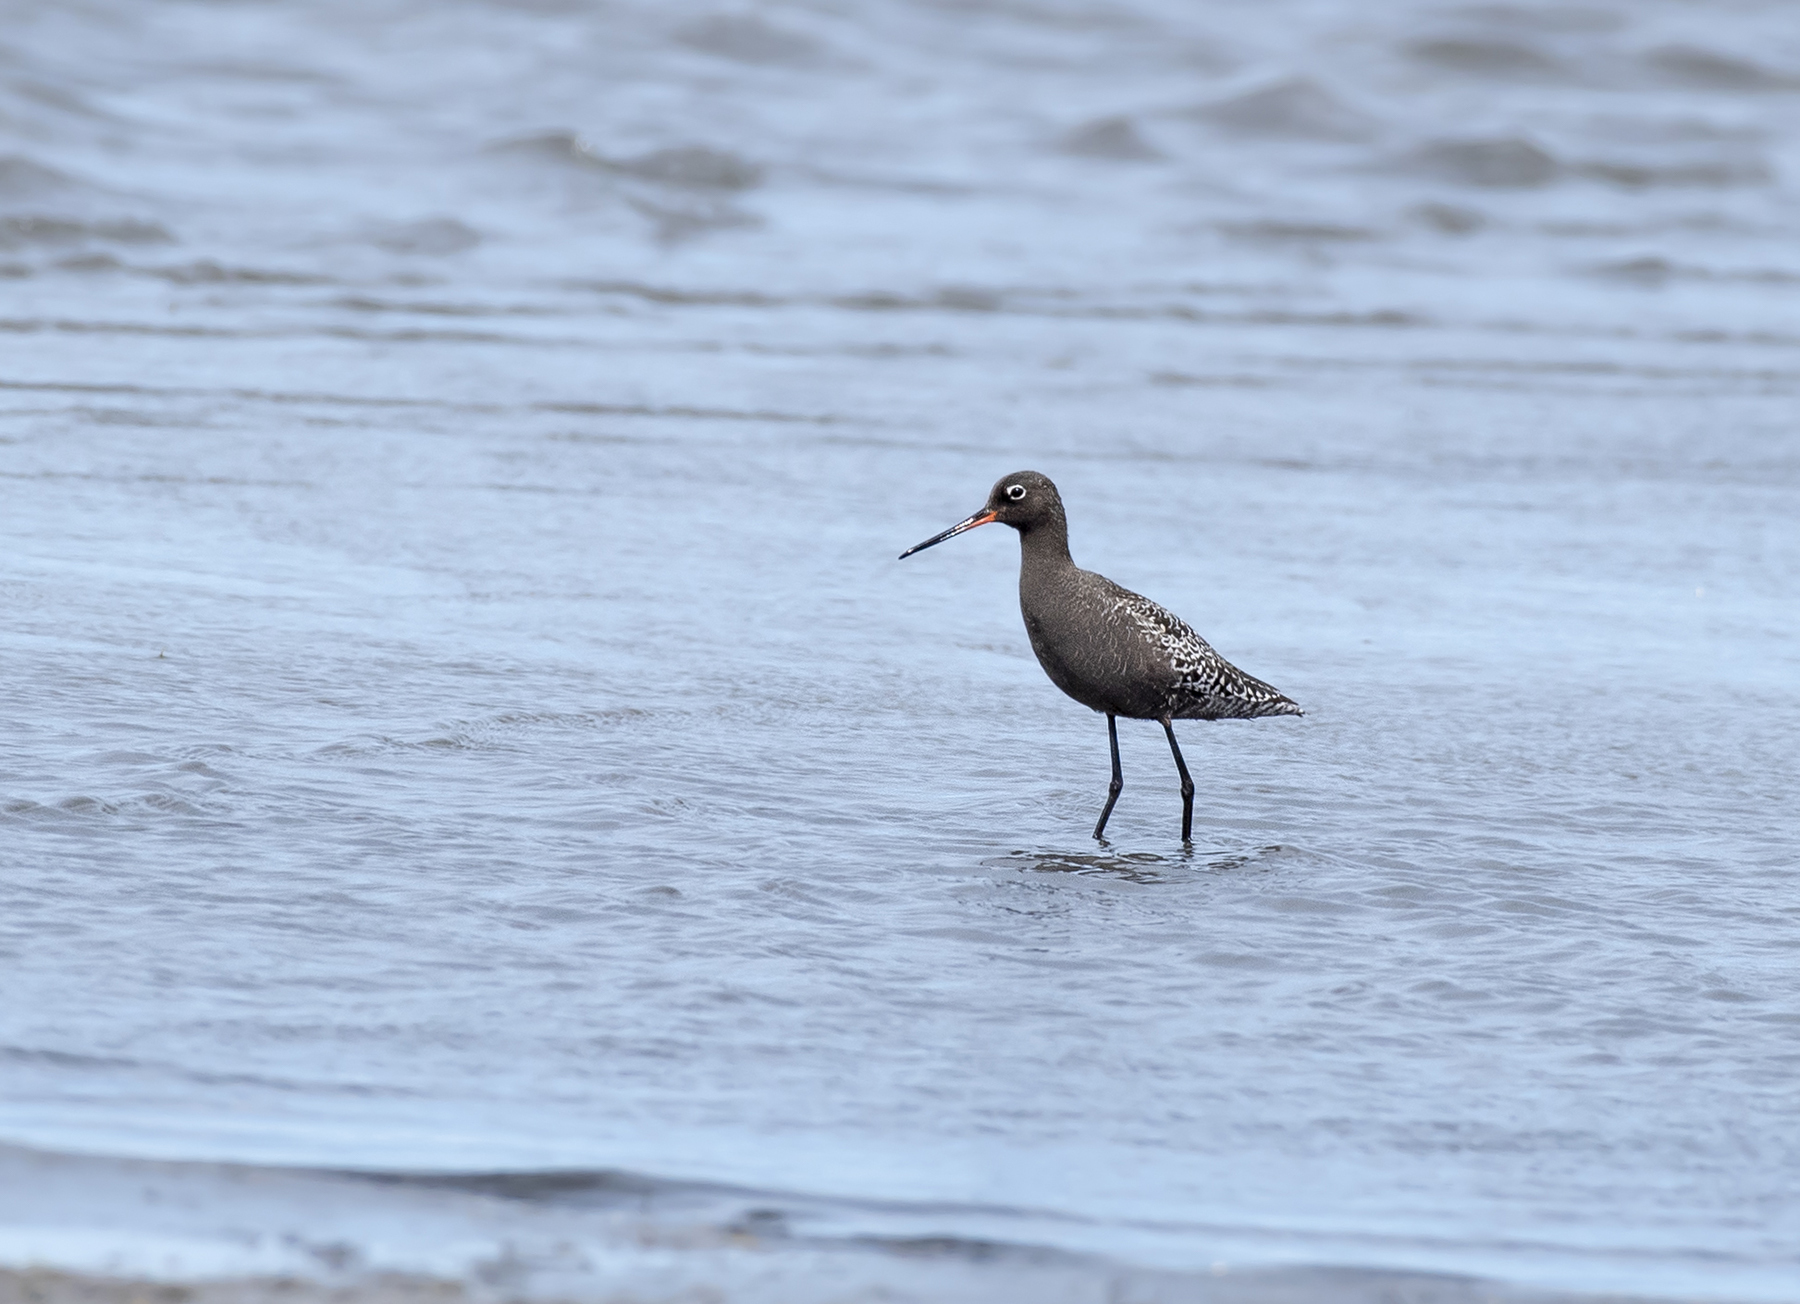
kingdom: Animalia
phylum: Chordata
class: Aves
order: Charadriiformes
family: Scolopacidae
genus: Tringa
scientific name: Tringa erythropus
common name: Spotted redshank
